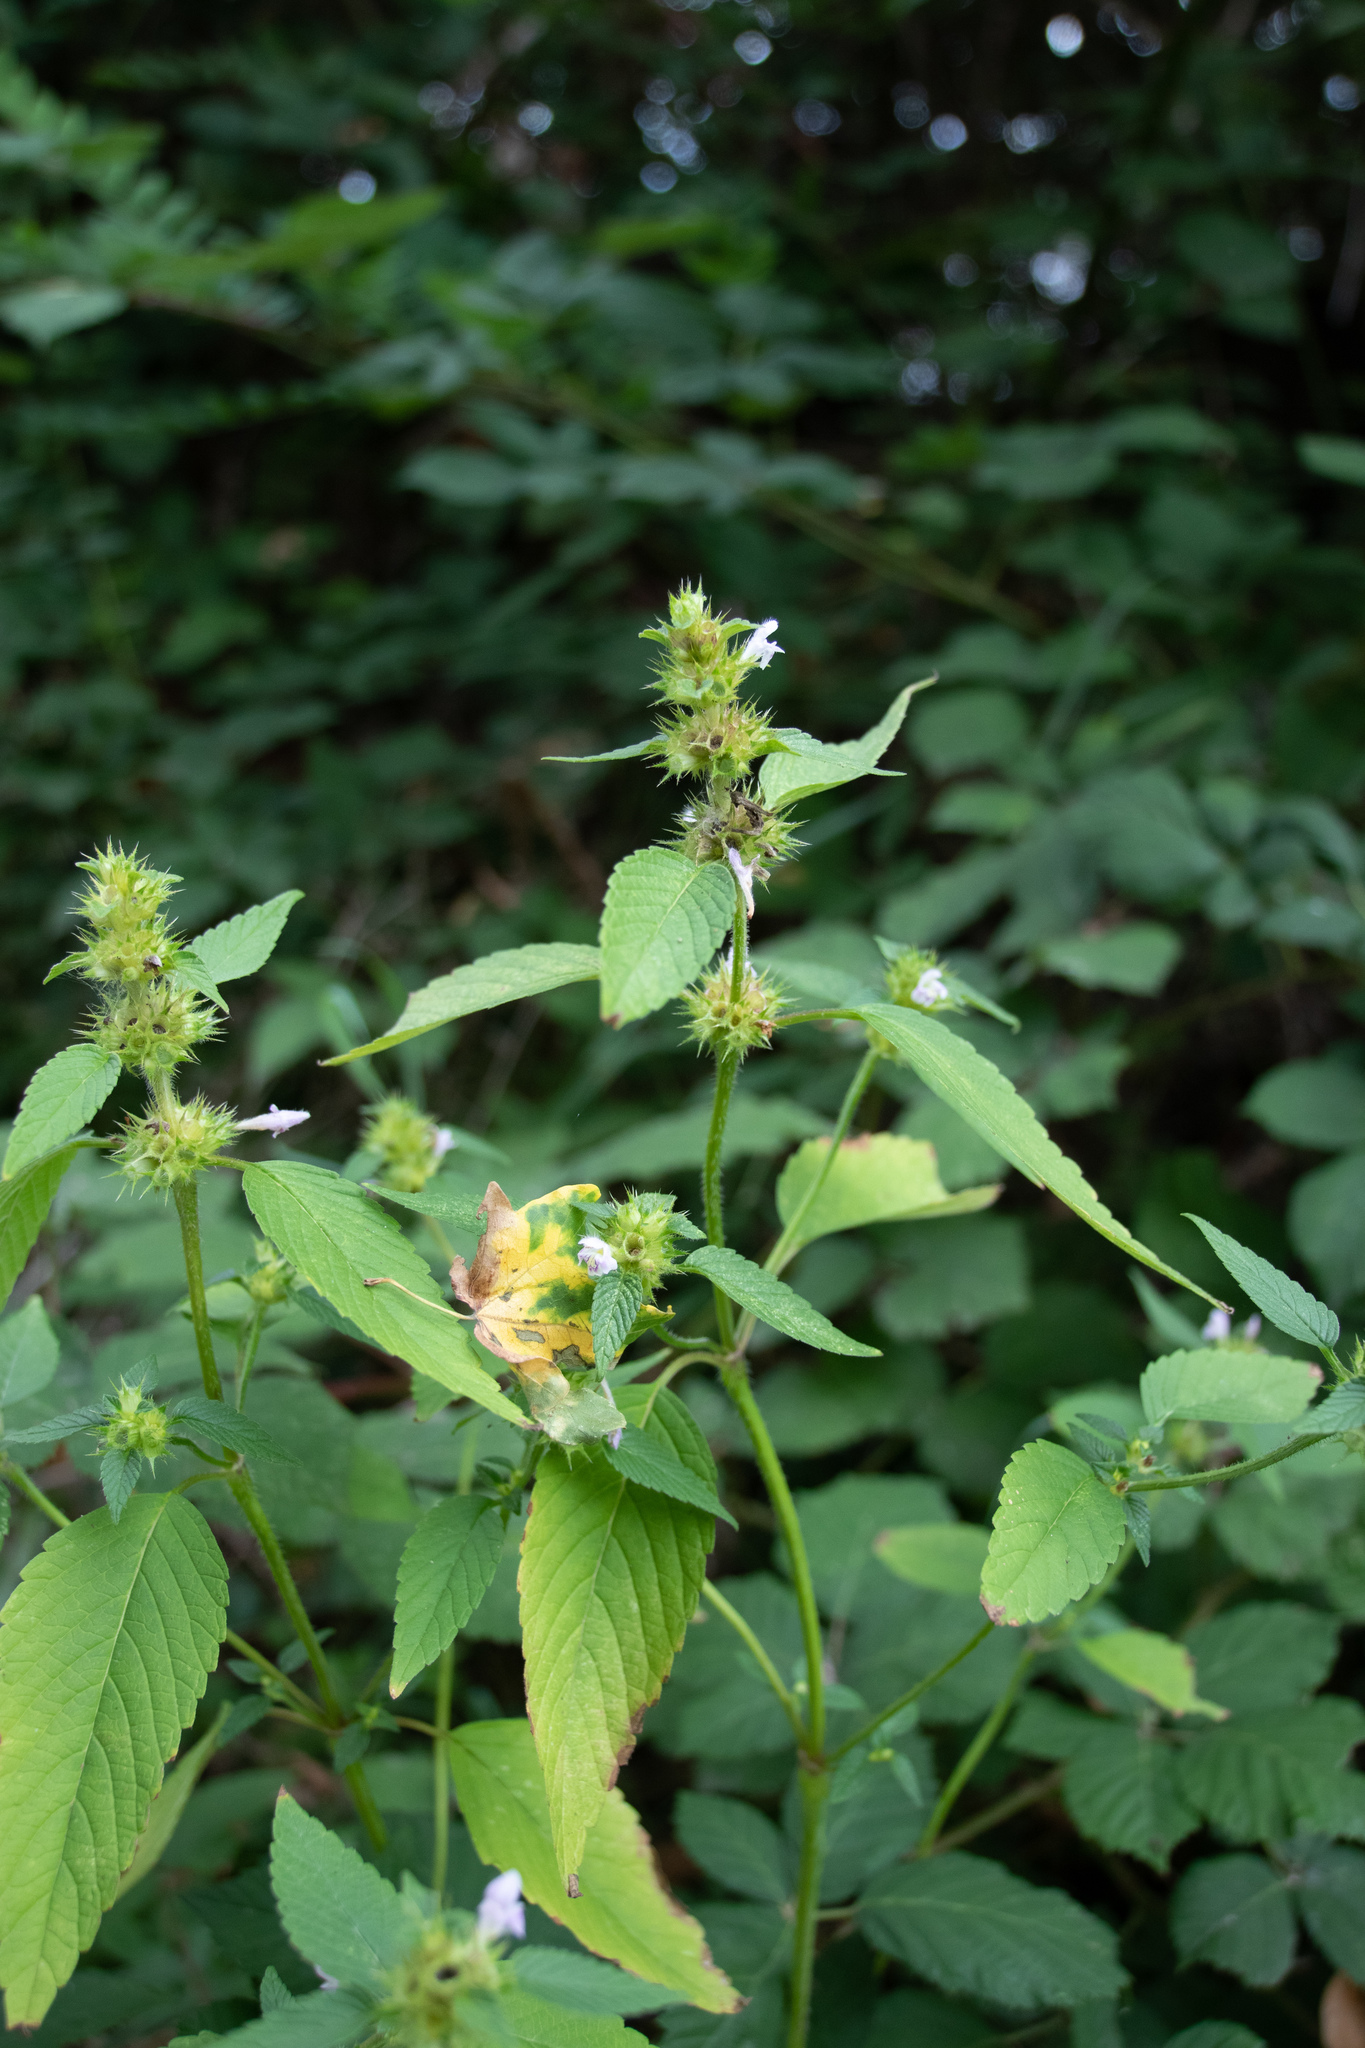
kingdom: Plantae
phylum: Tracheophyta
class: Magnoliopsida
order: Lamiales
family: Lamiaceae
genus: Galeopsis
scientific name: Galeopsis tetrahit
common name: Common hemp-nettle
